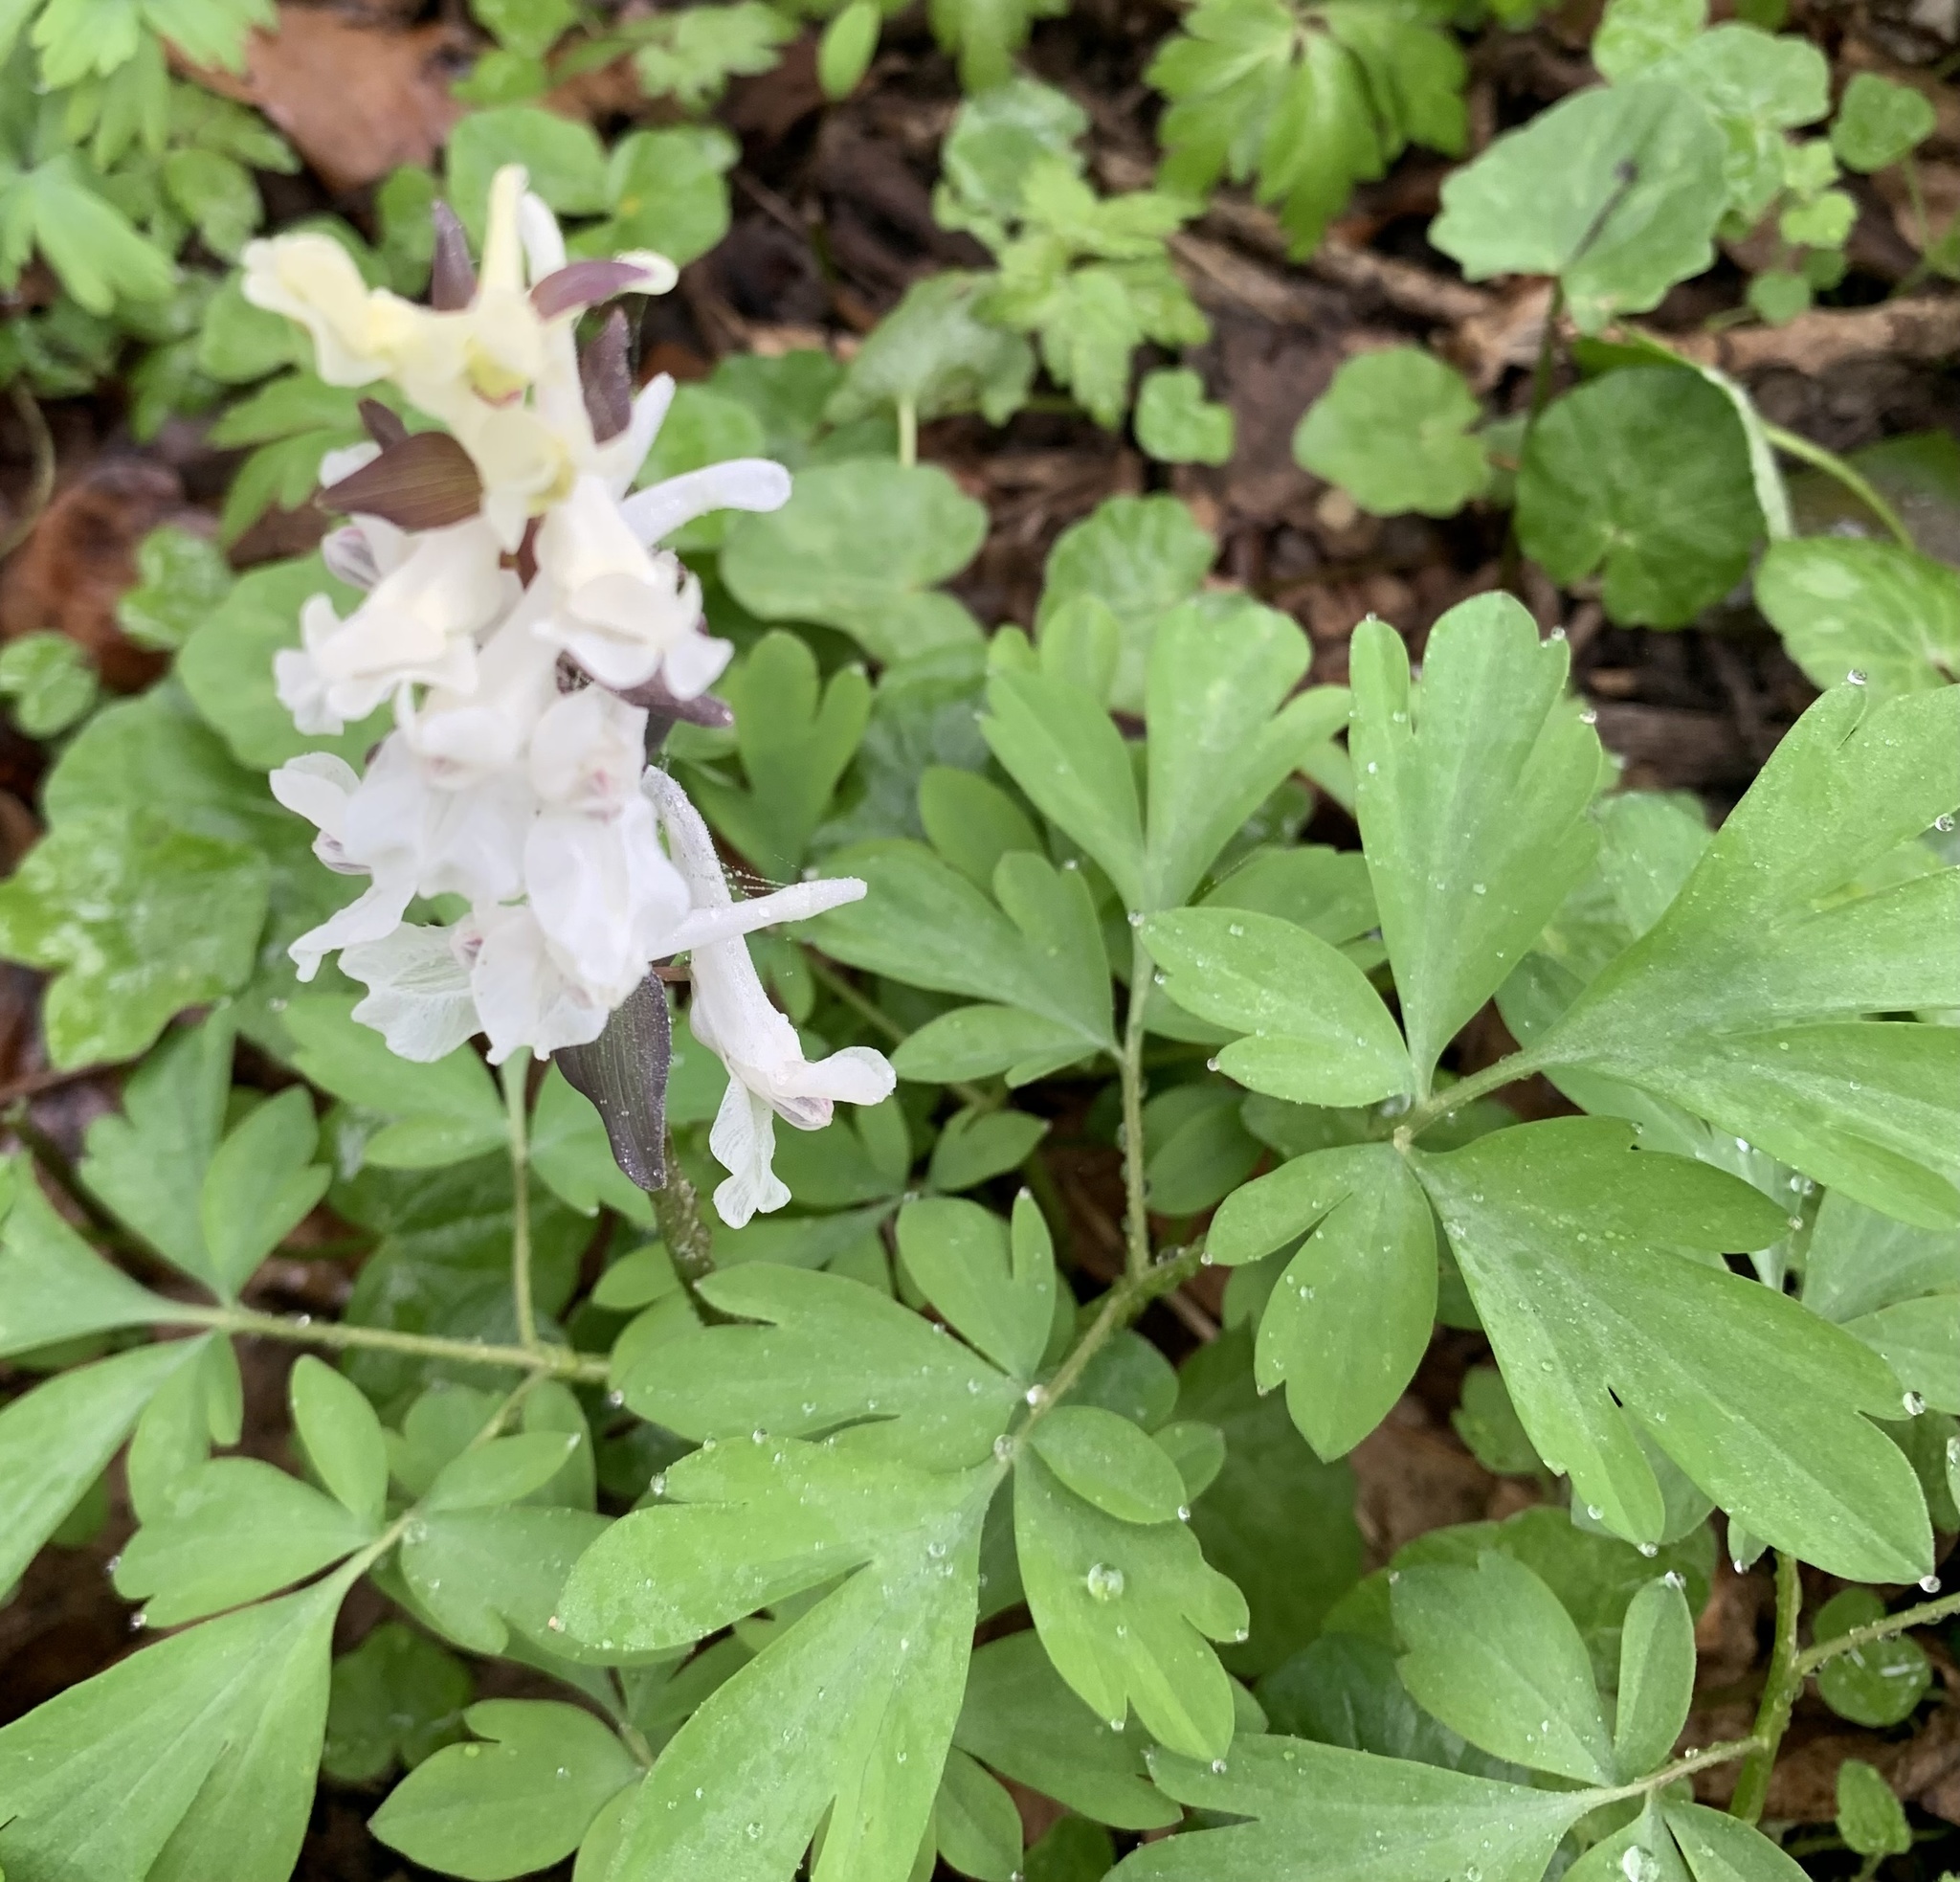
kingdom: Plantae
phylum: Tracheophyta
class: Magnoliopsida
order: Ranunculales
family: Papaveraceae
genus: Corydalis
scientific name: Corydalis cava
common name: Hollowroot
